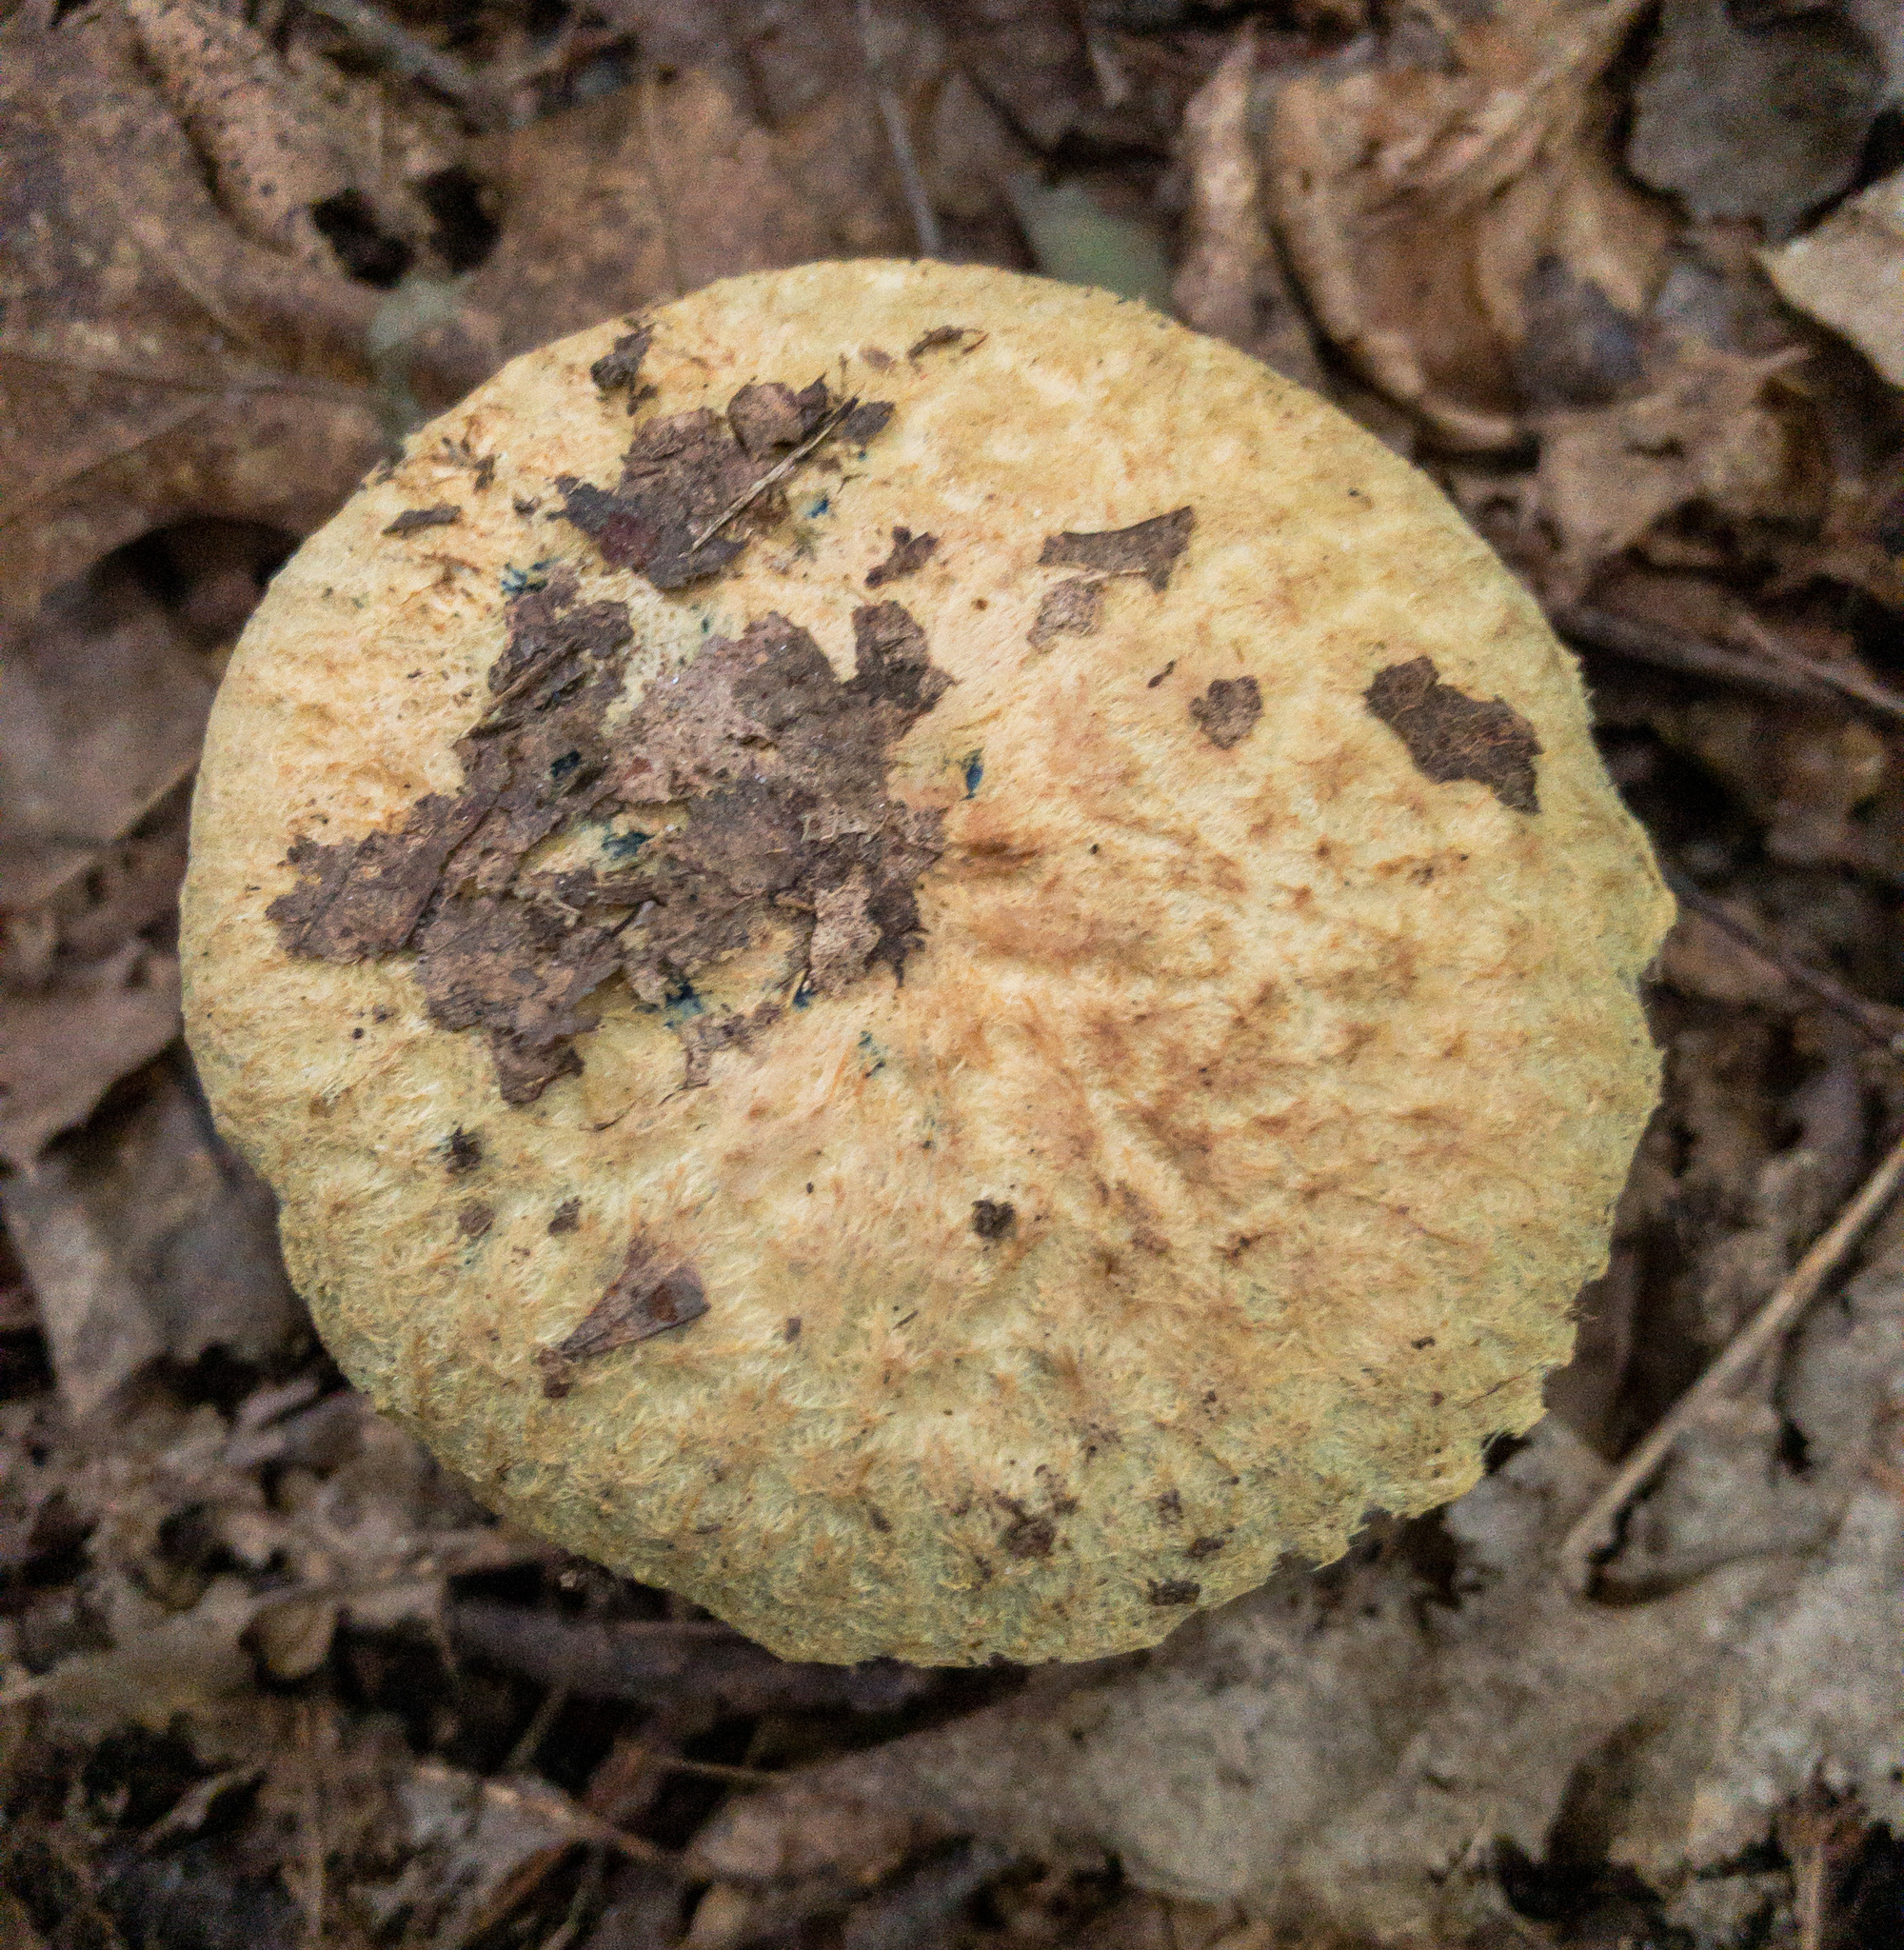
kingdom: Fungi
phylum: Basidiomycota
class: Agaricomycetes
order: Boletales
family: Gyroporaceae
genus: Gyroporus
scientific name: Gyroporus cyanescens
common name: Cornflower bolete
